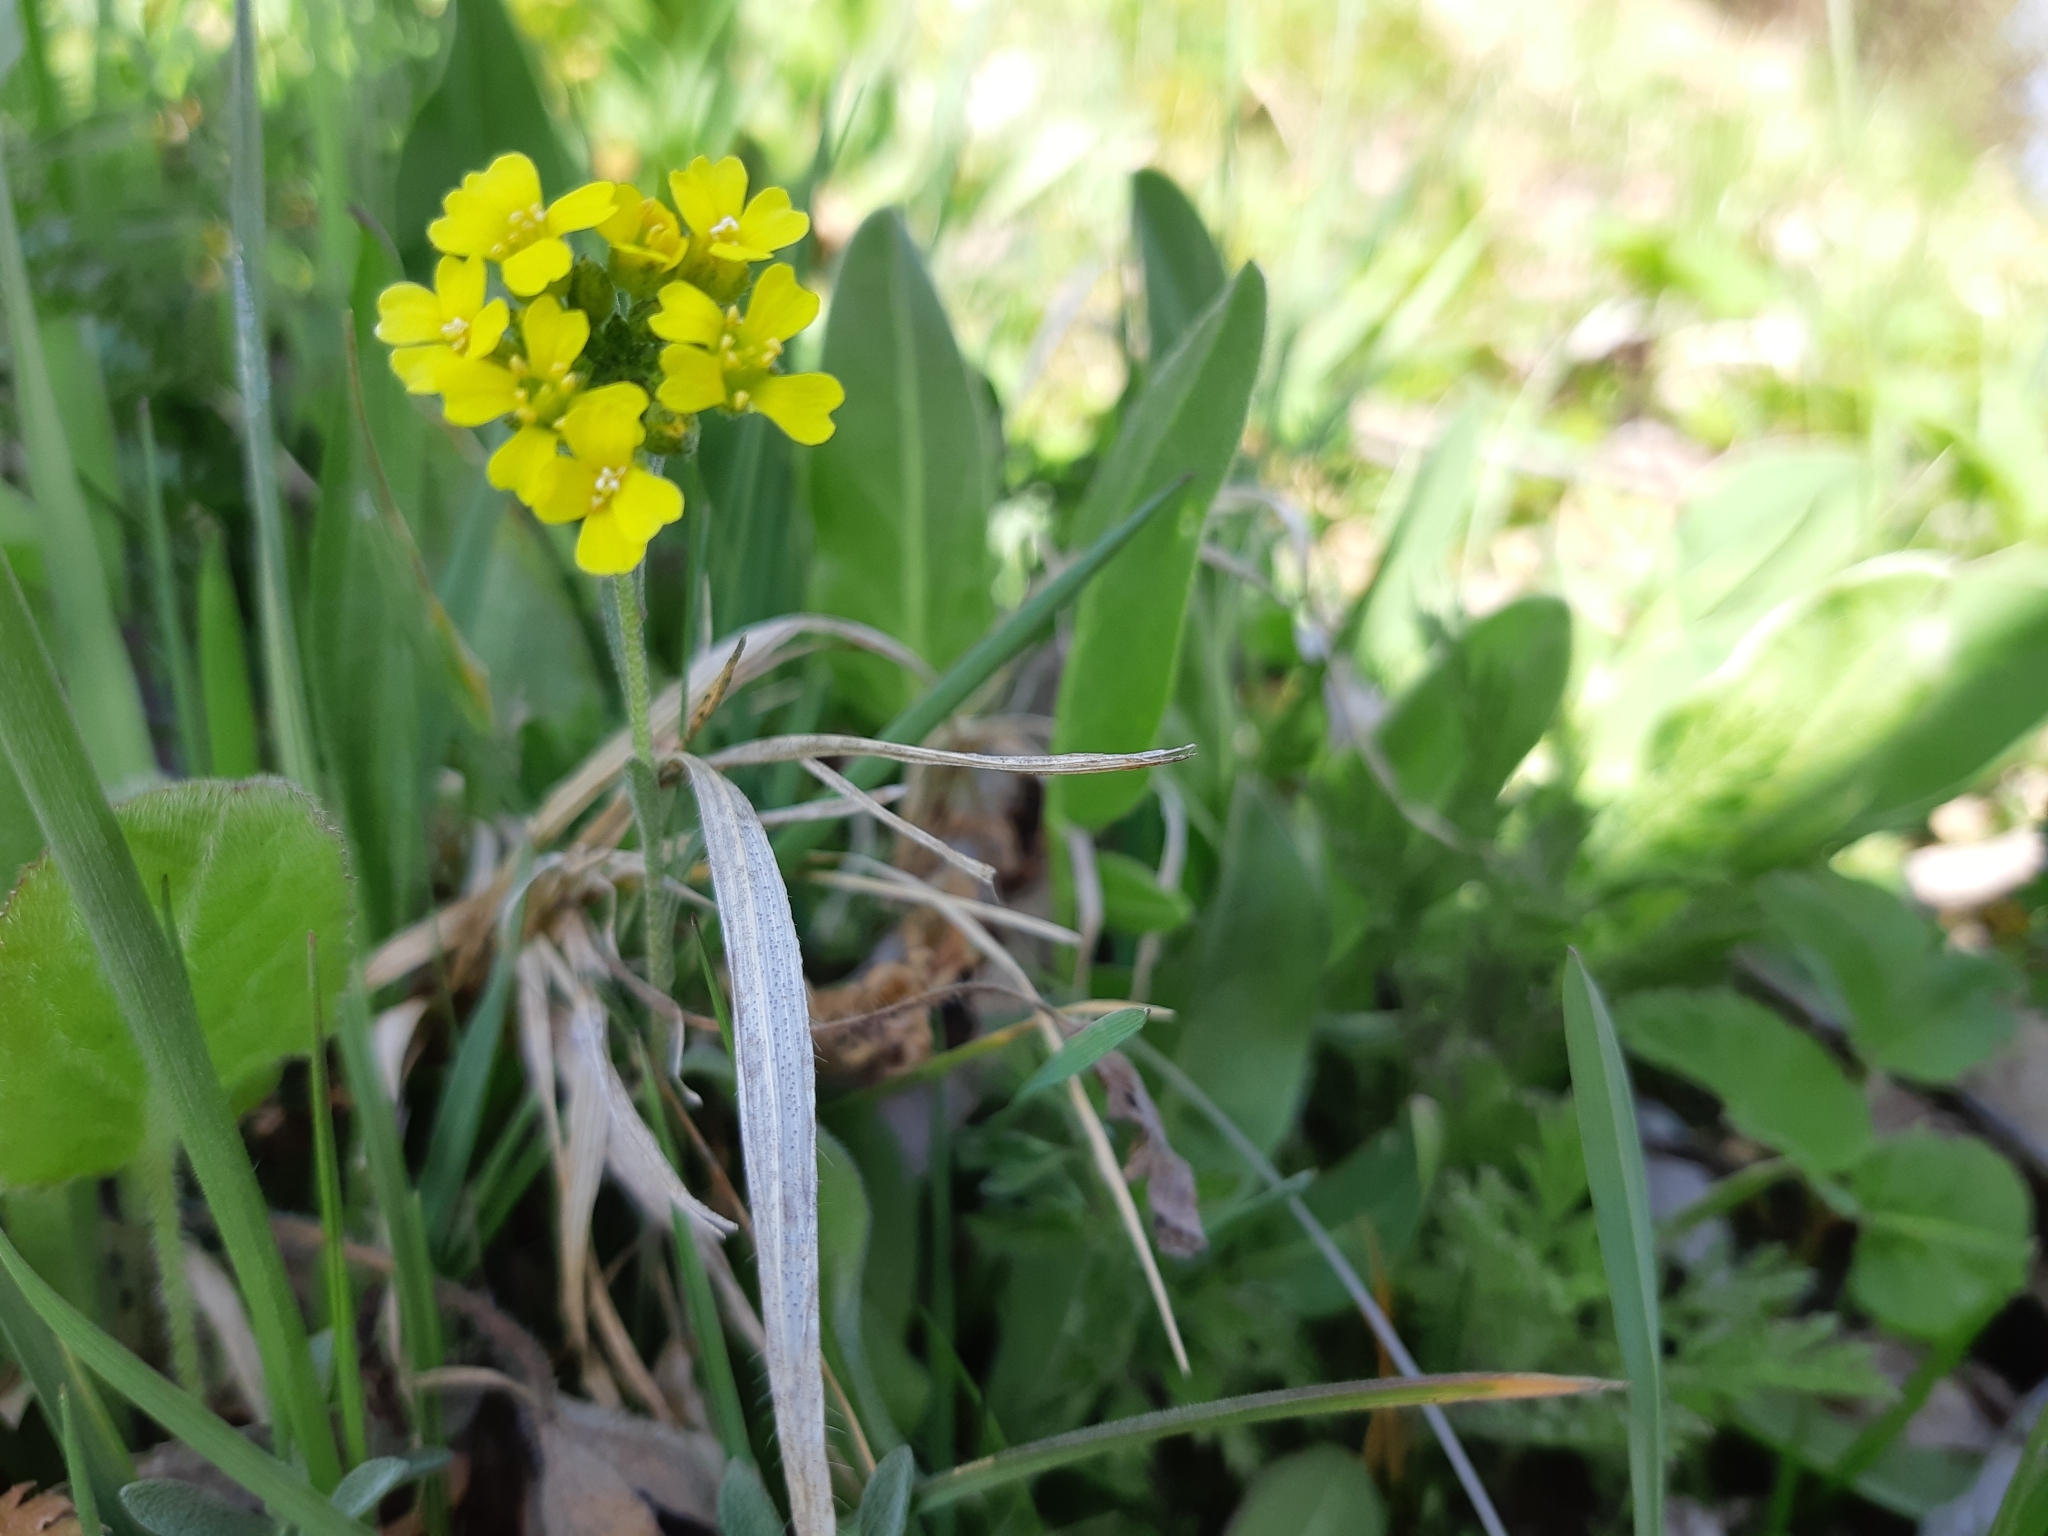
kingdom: Plantae
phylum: Tracheophyta
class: Magnoliopsida
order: Brassicales
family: Brassicaceae
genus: Alyssum
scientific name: Alyssum gmelinii
